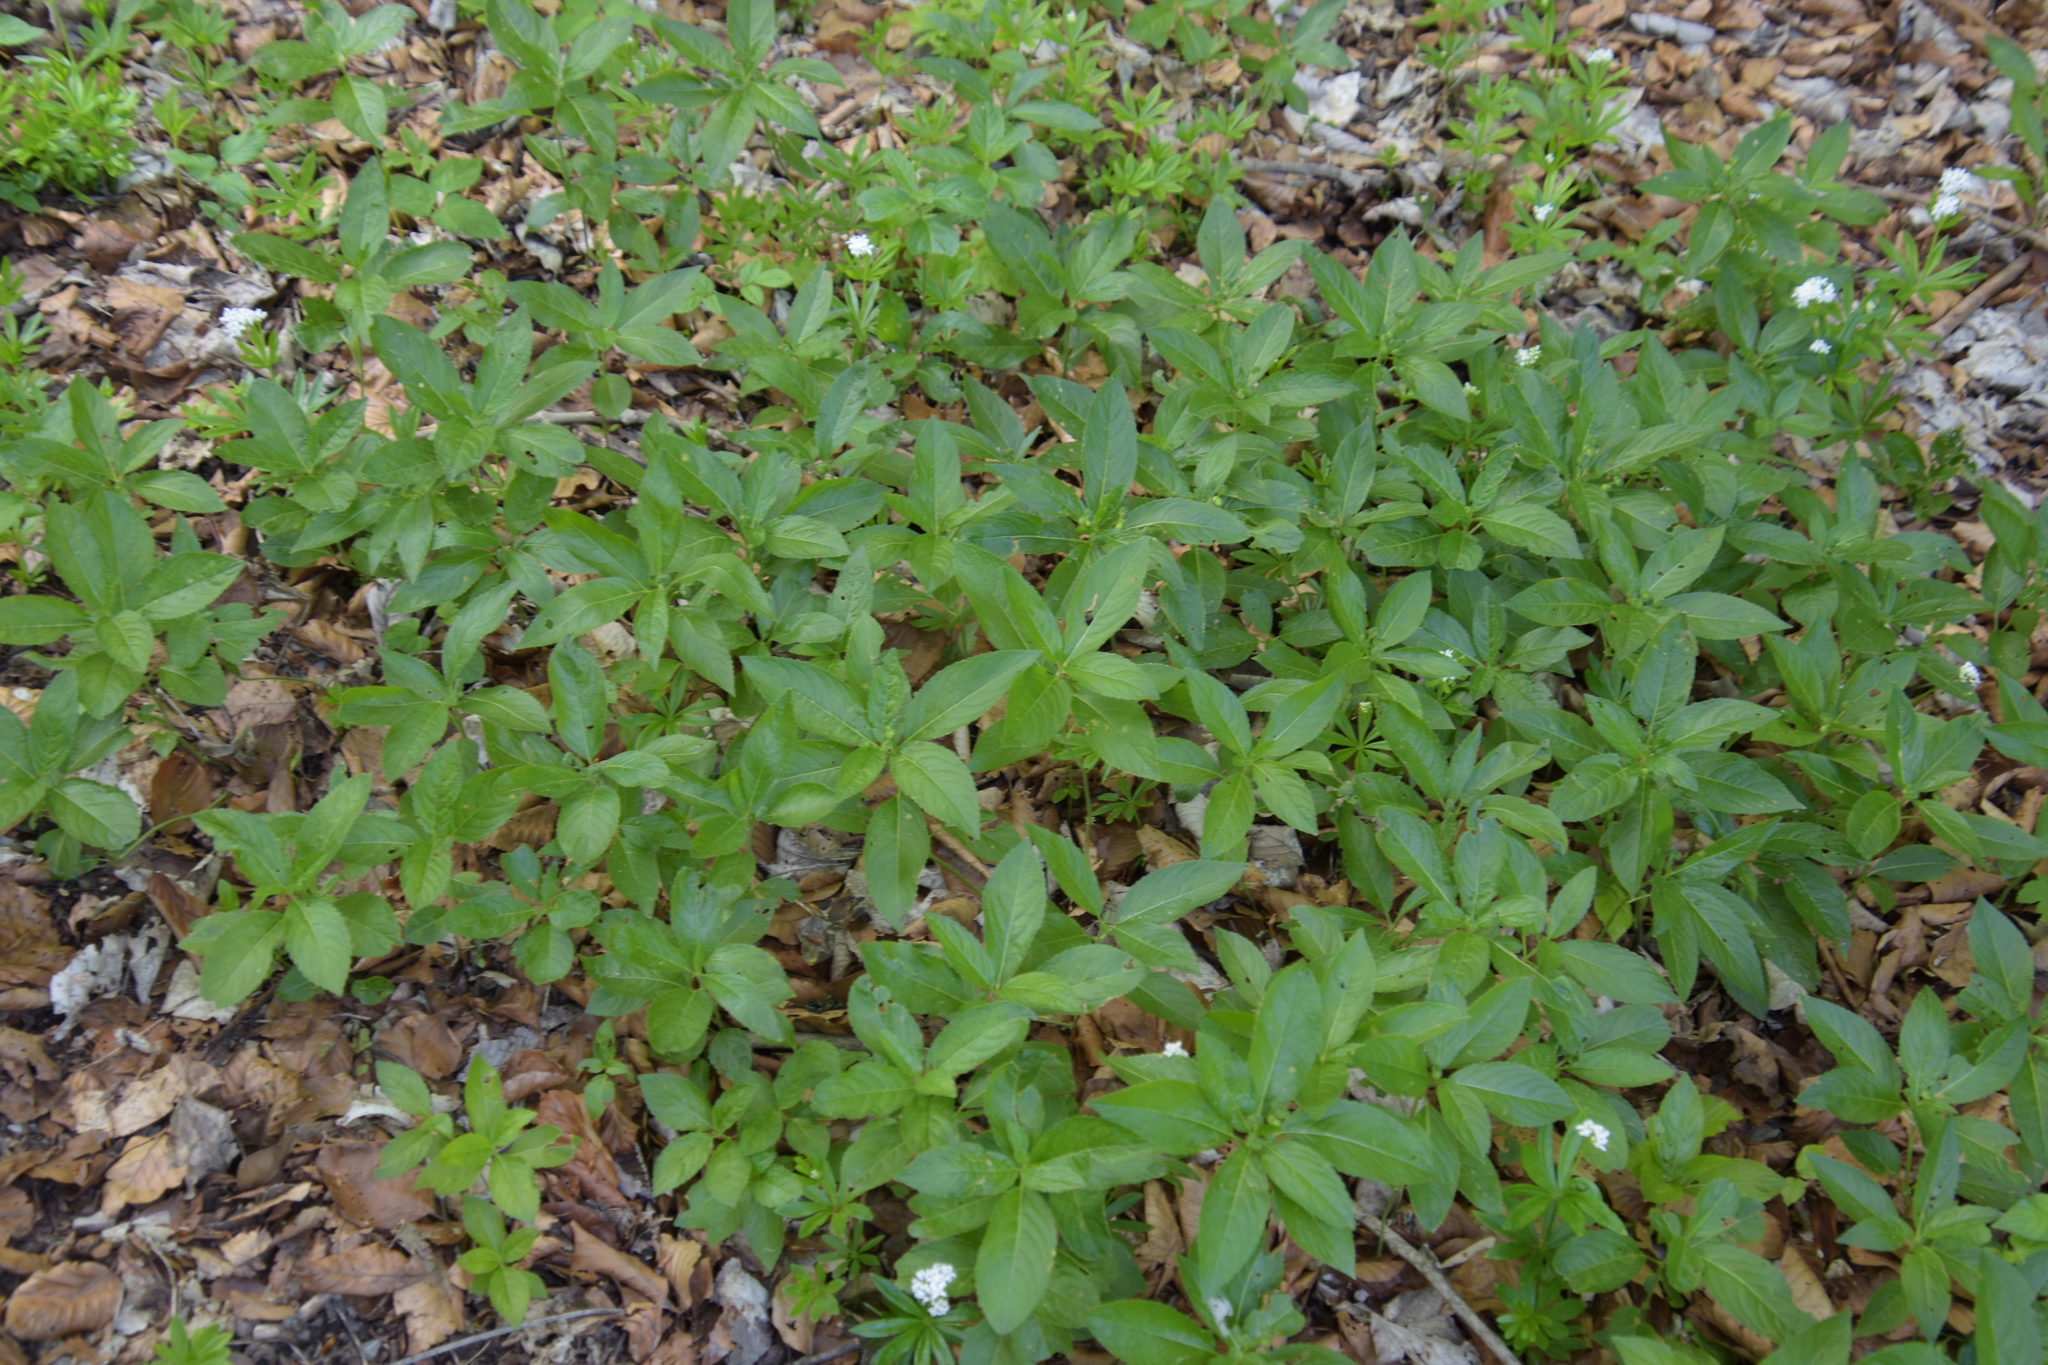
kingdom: Plantae
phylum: Tracheophyta
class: Magnoliopsida
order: Malpighiales
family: Euphorbiaceae
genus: Mercurialis
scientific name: Mercurialis perennis
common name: Dog mercury
